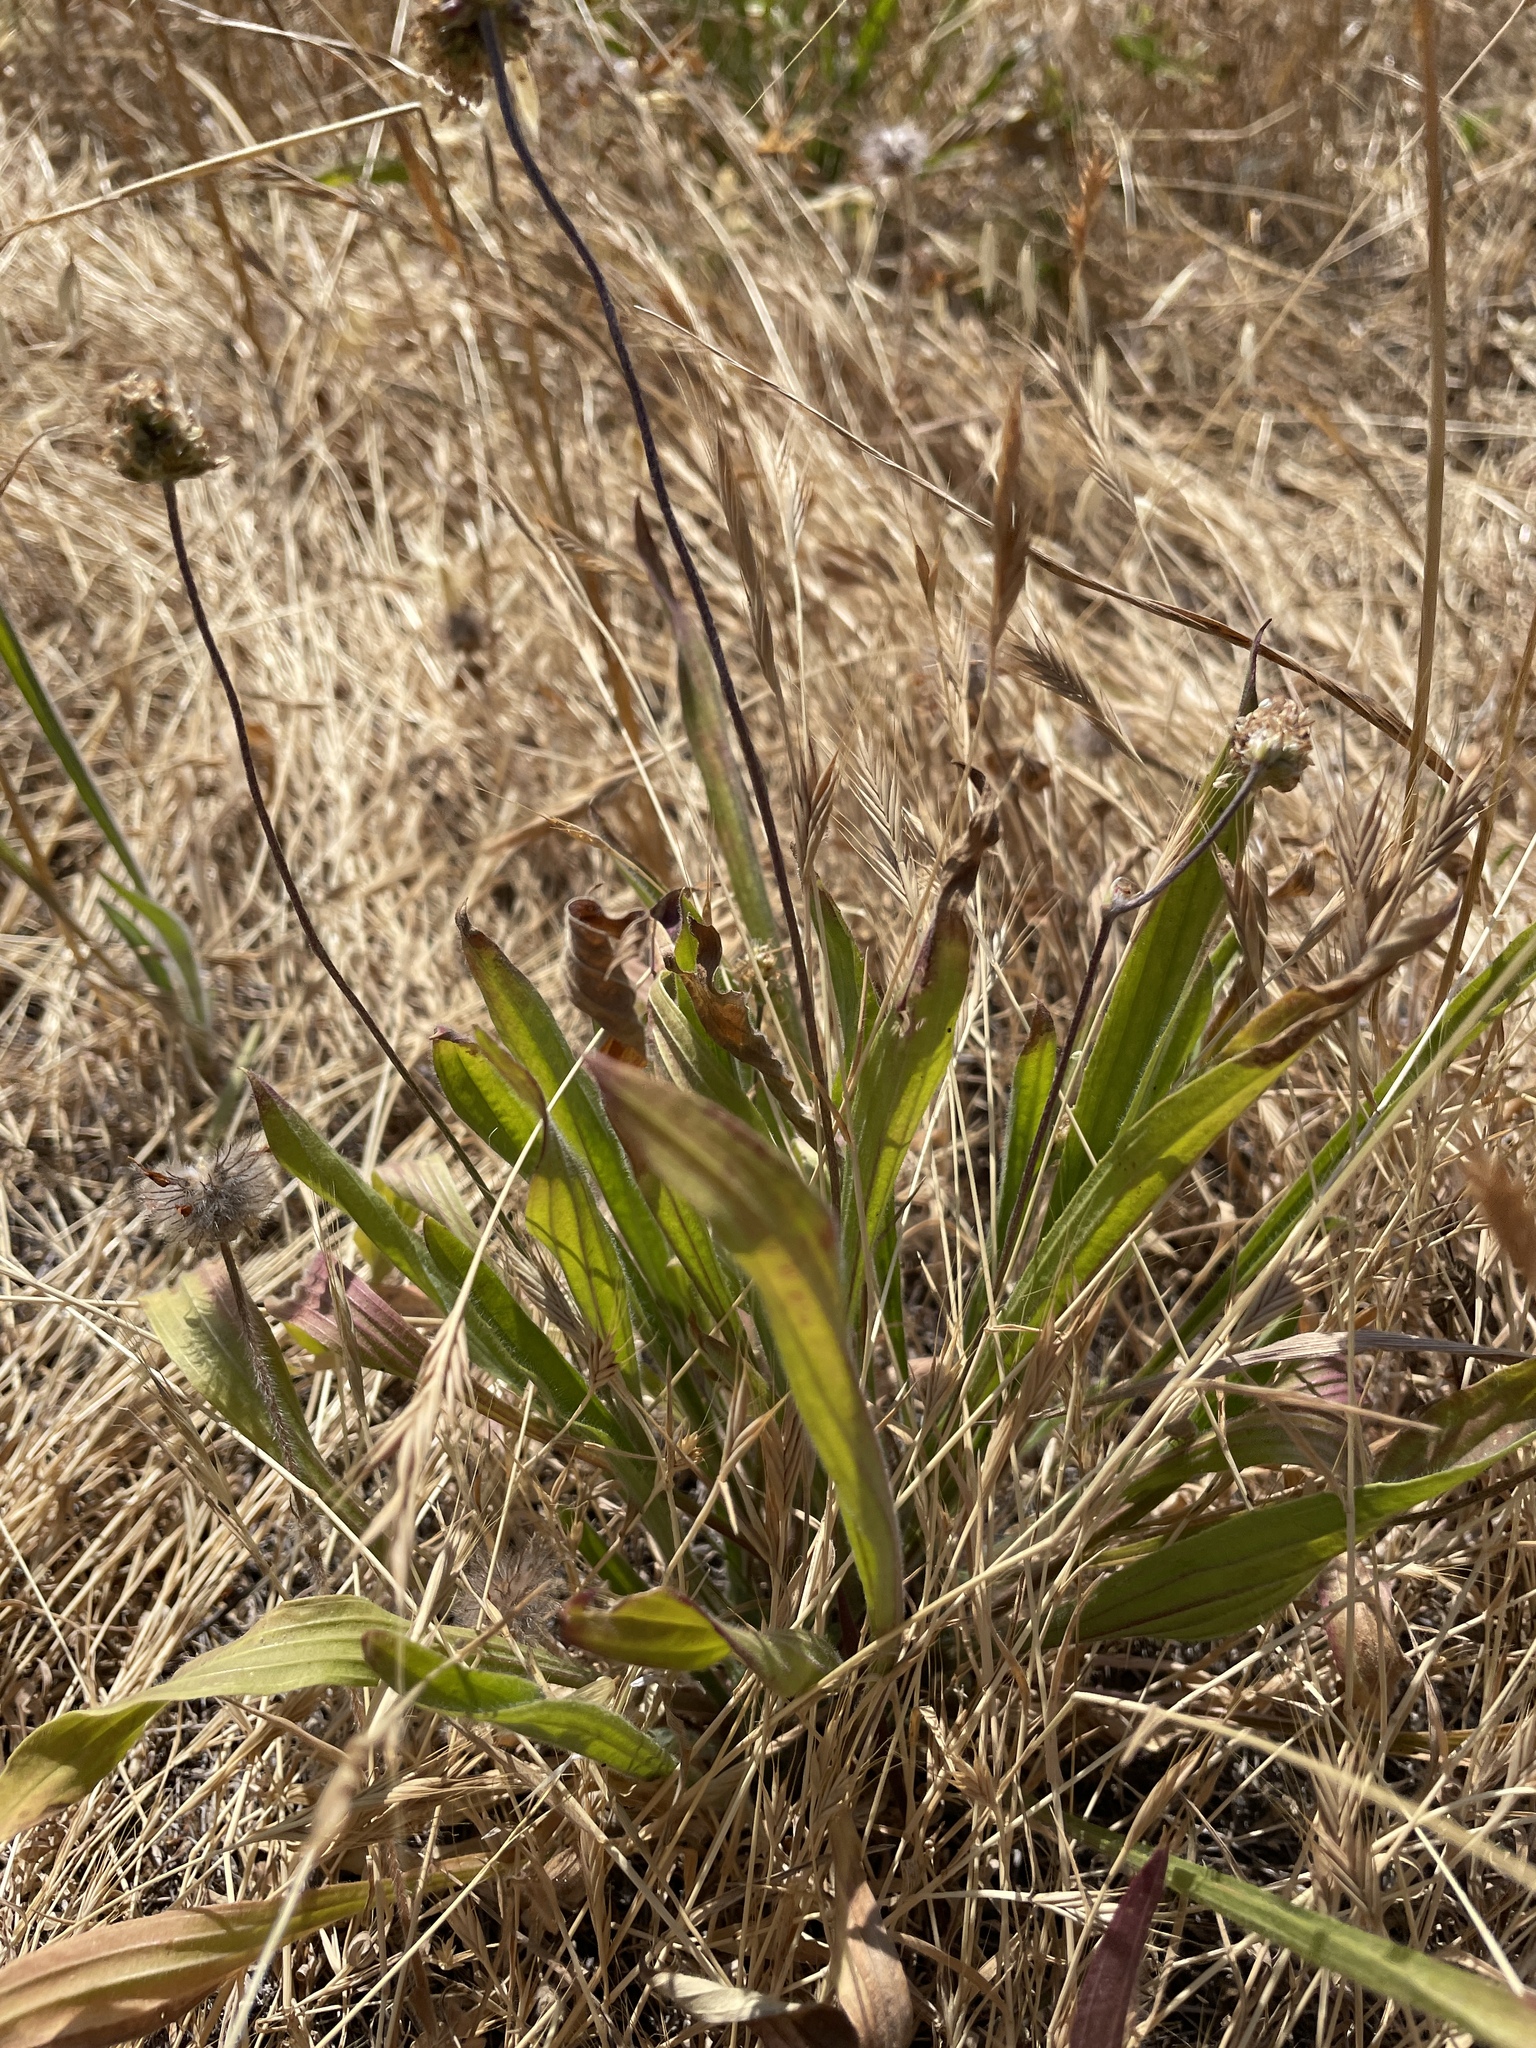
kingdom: Plantae
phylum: Tracheophyta
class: Magnoliopsida
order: Lamiales
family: Plantaginaceae
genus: Plantago
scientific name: Plantago lanceolata
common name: Ribwort plantain
